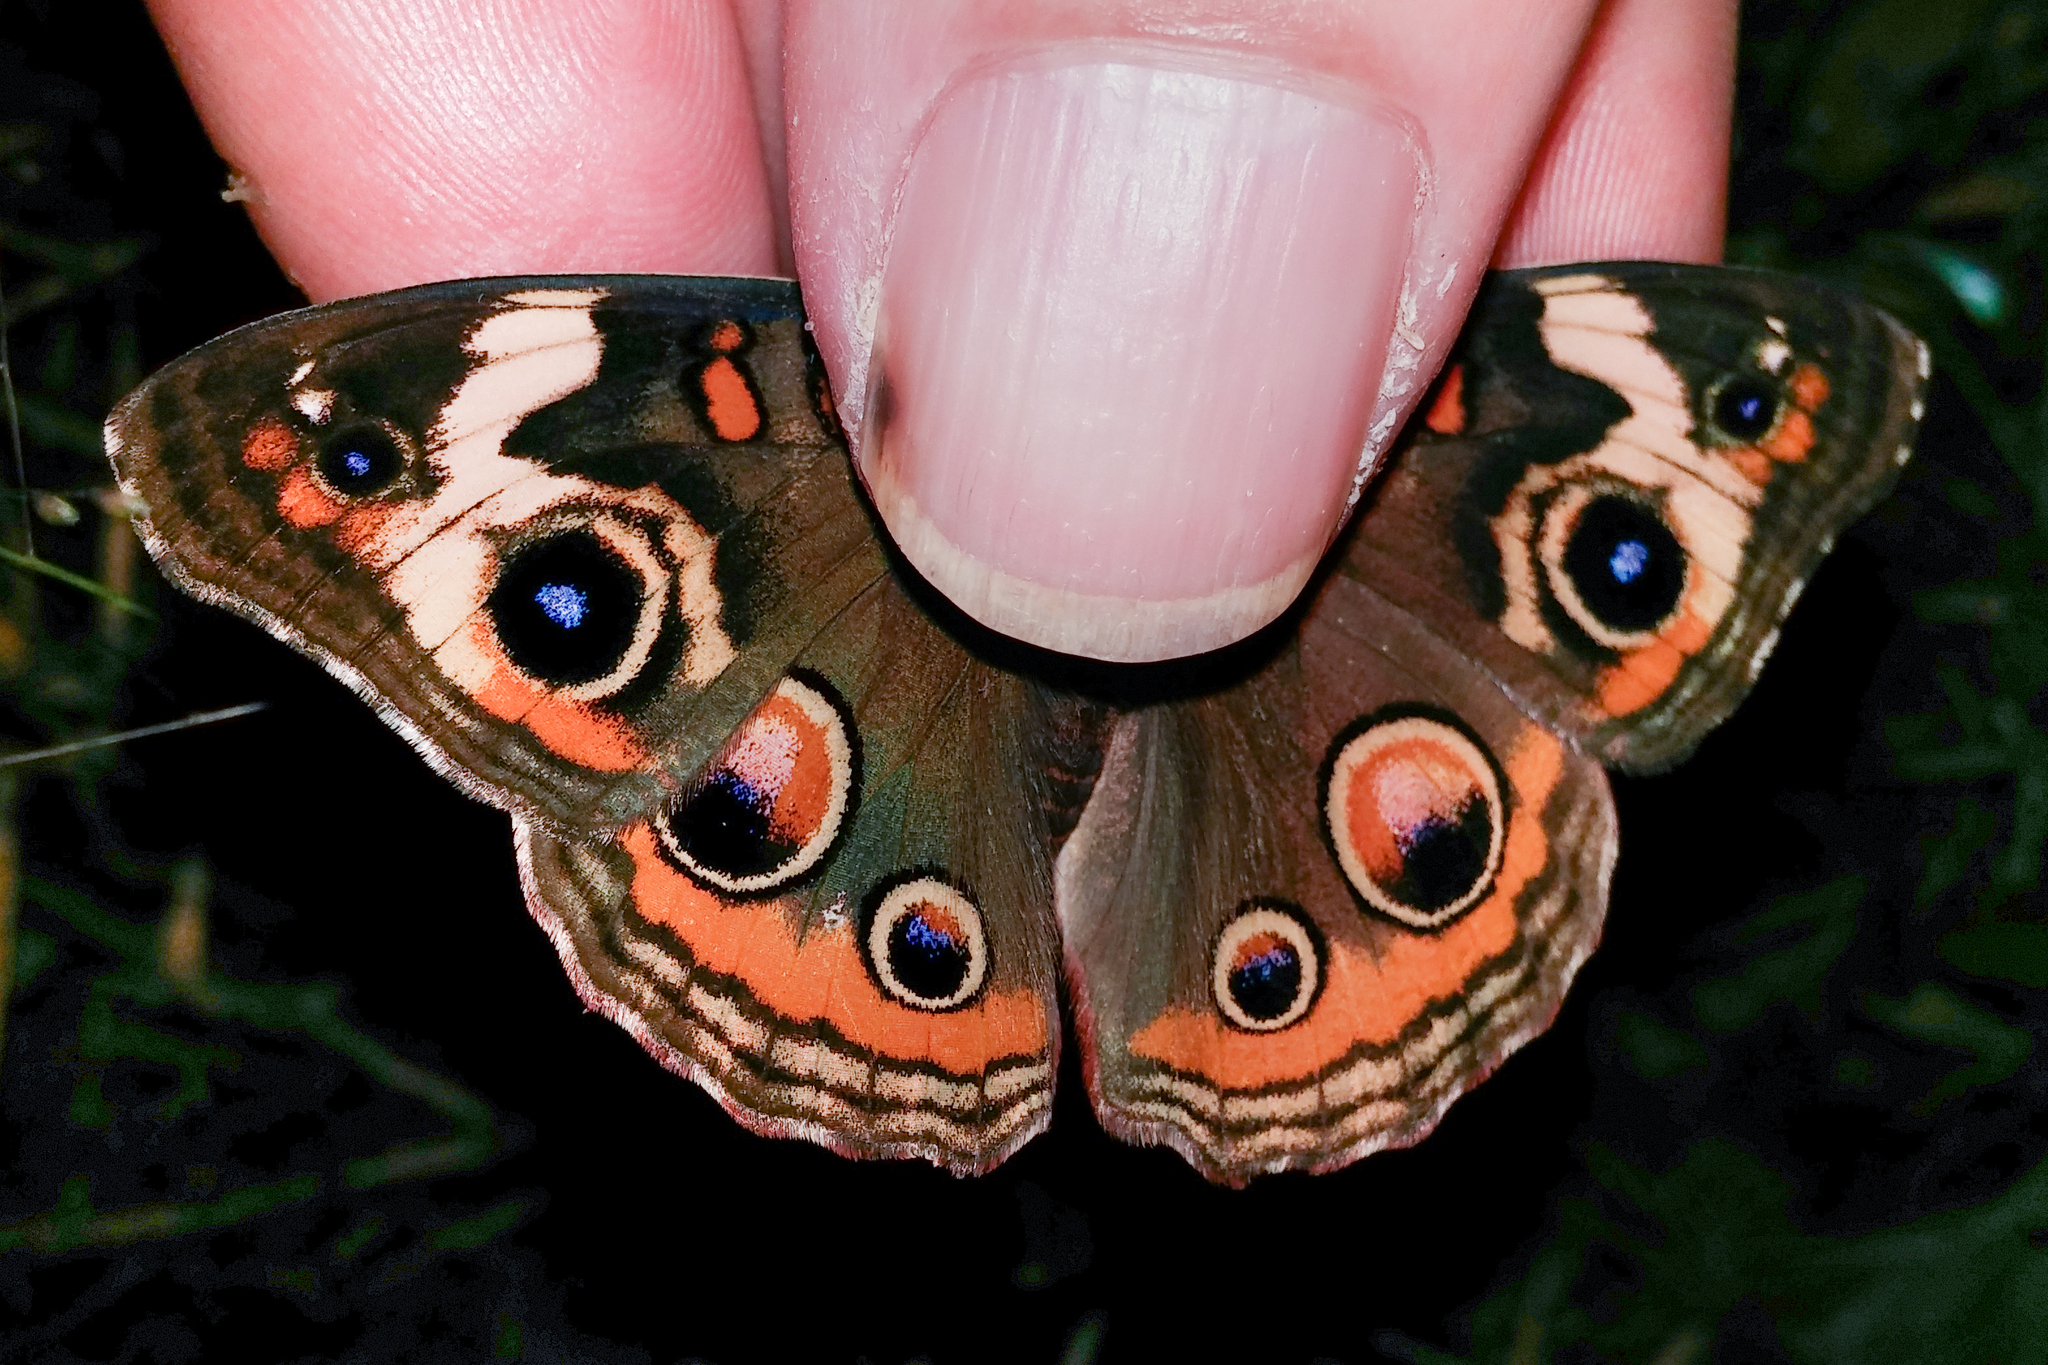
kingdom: Animalia
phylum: Arthropoda
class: Insecta
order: Lepidoptera
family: Nymphalidae
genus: Junonia
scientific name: Junonia coenia
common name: Common buckeye
